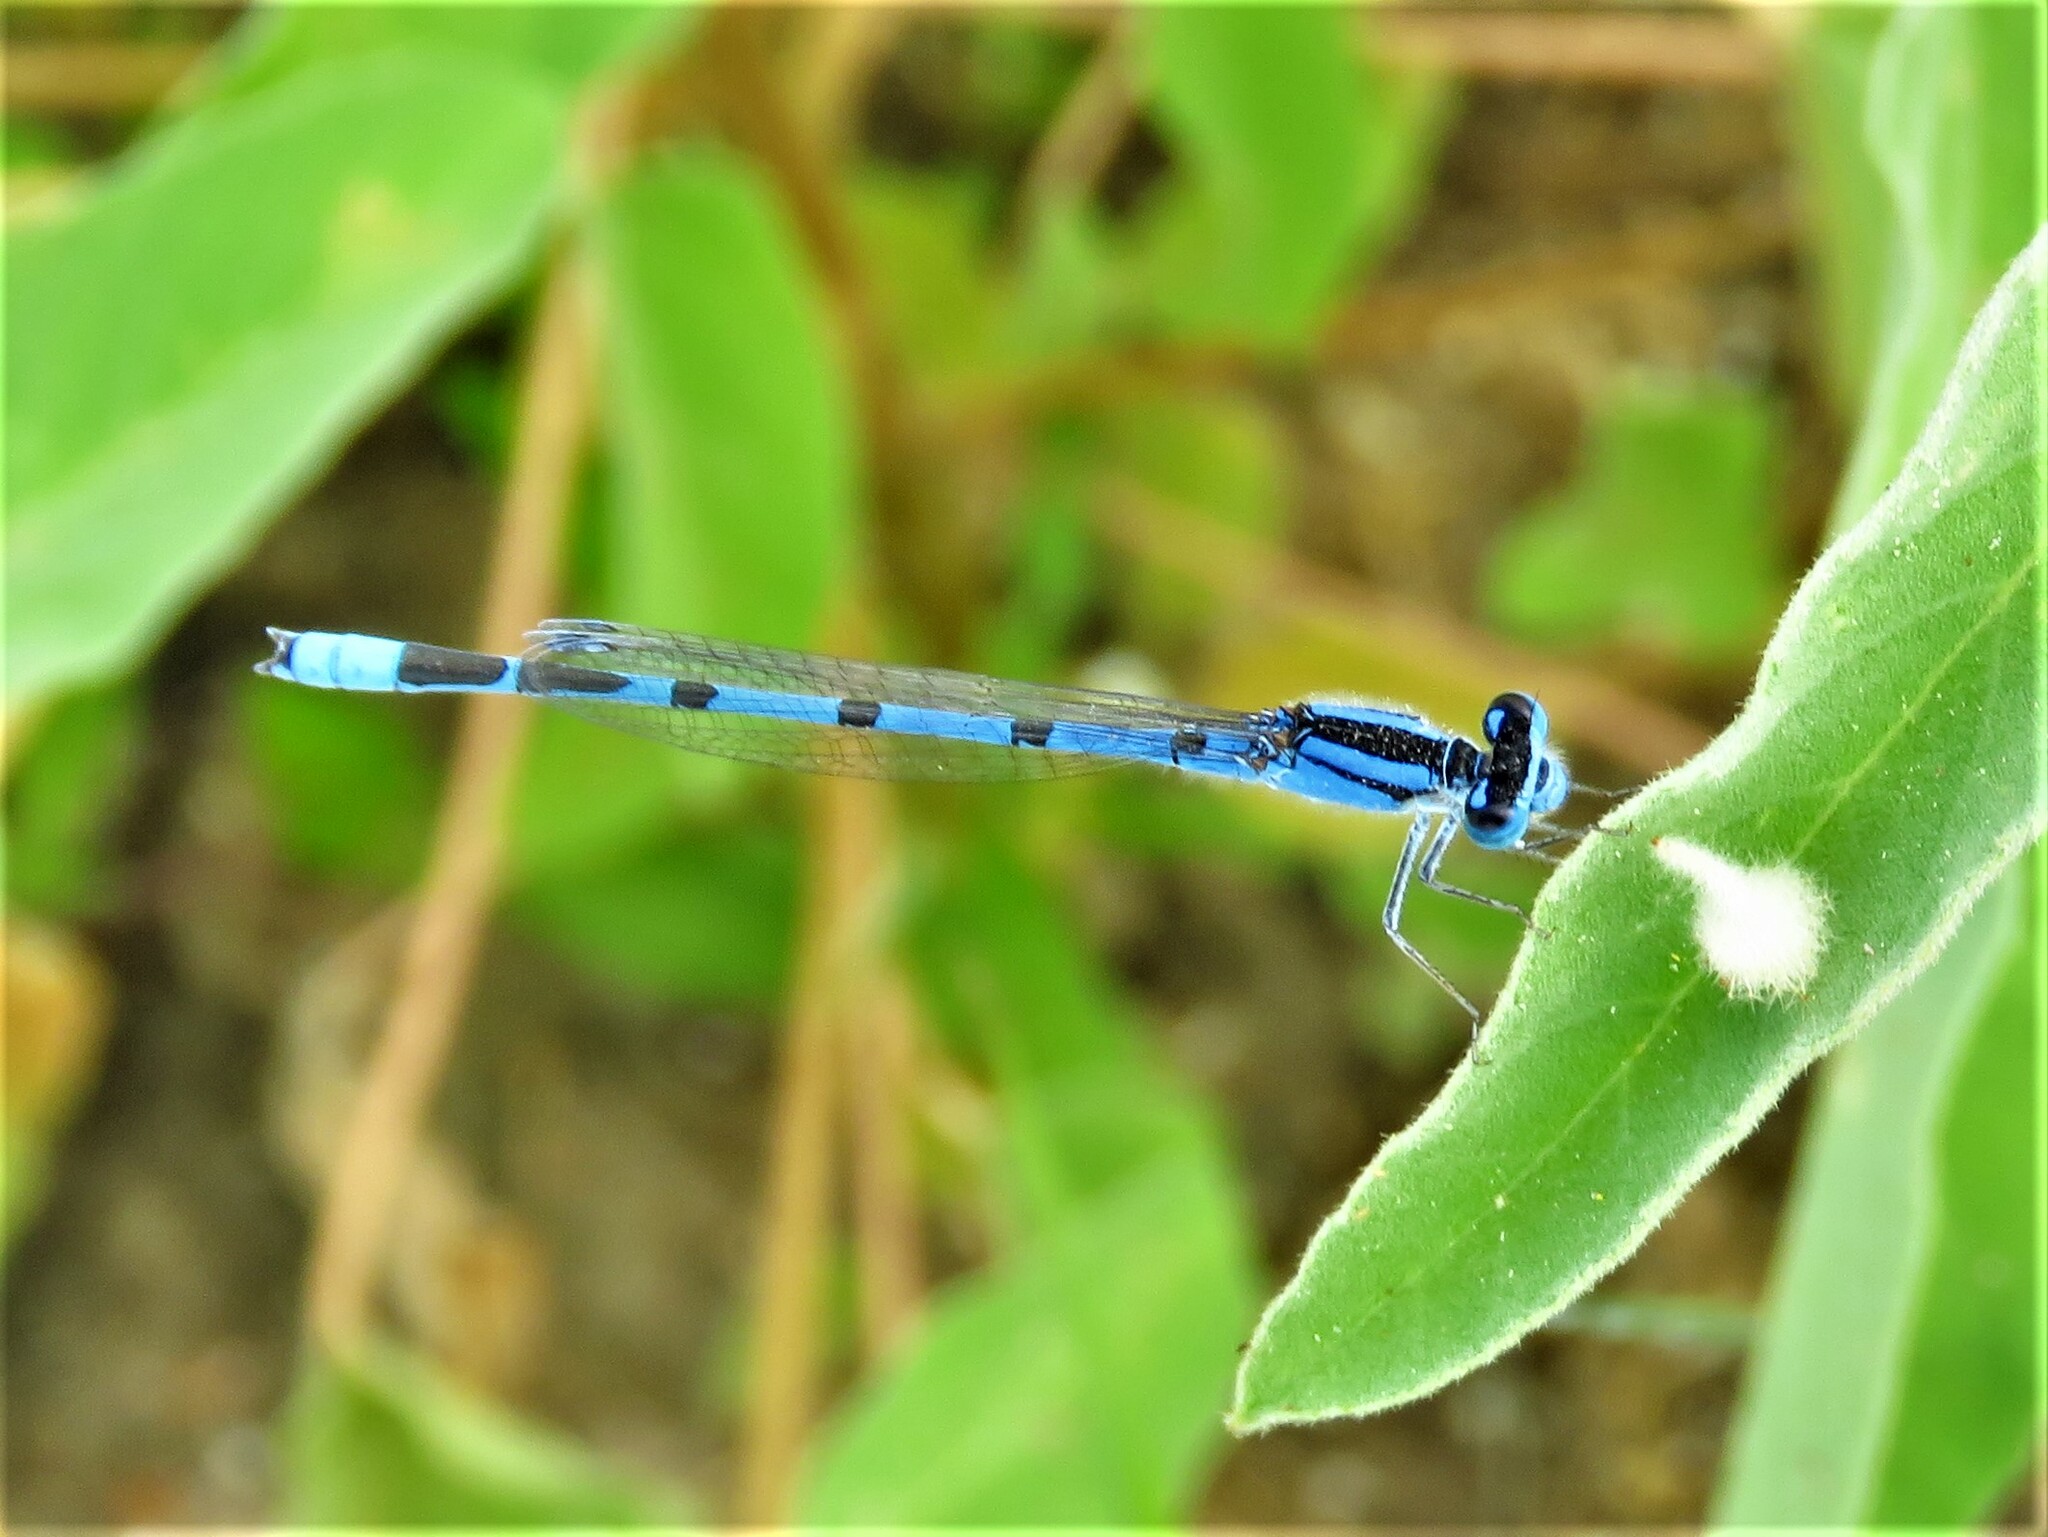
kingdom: Animalia
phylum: Arthropoda
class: Insecta
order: Odonata
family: Coenagrionidae
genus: Enallagma
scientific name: Enallagma civile
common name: Damselfly
